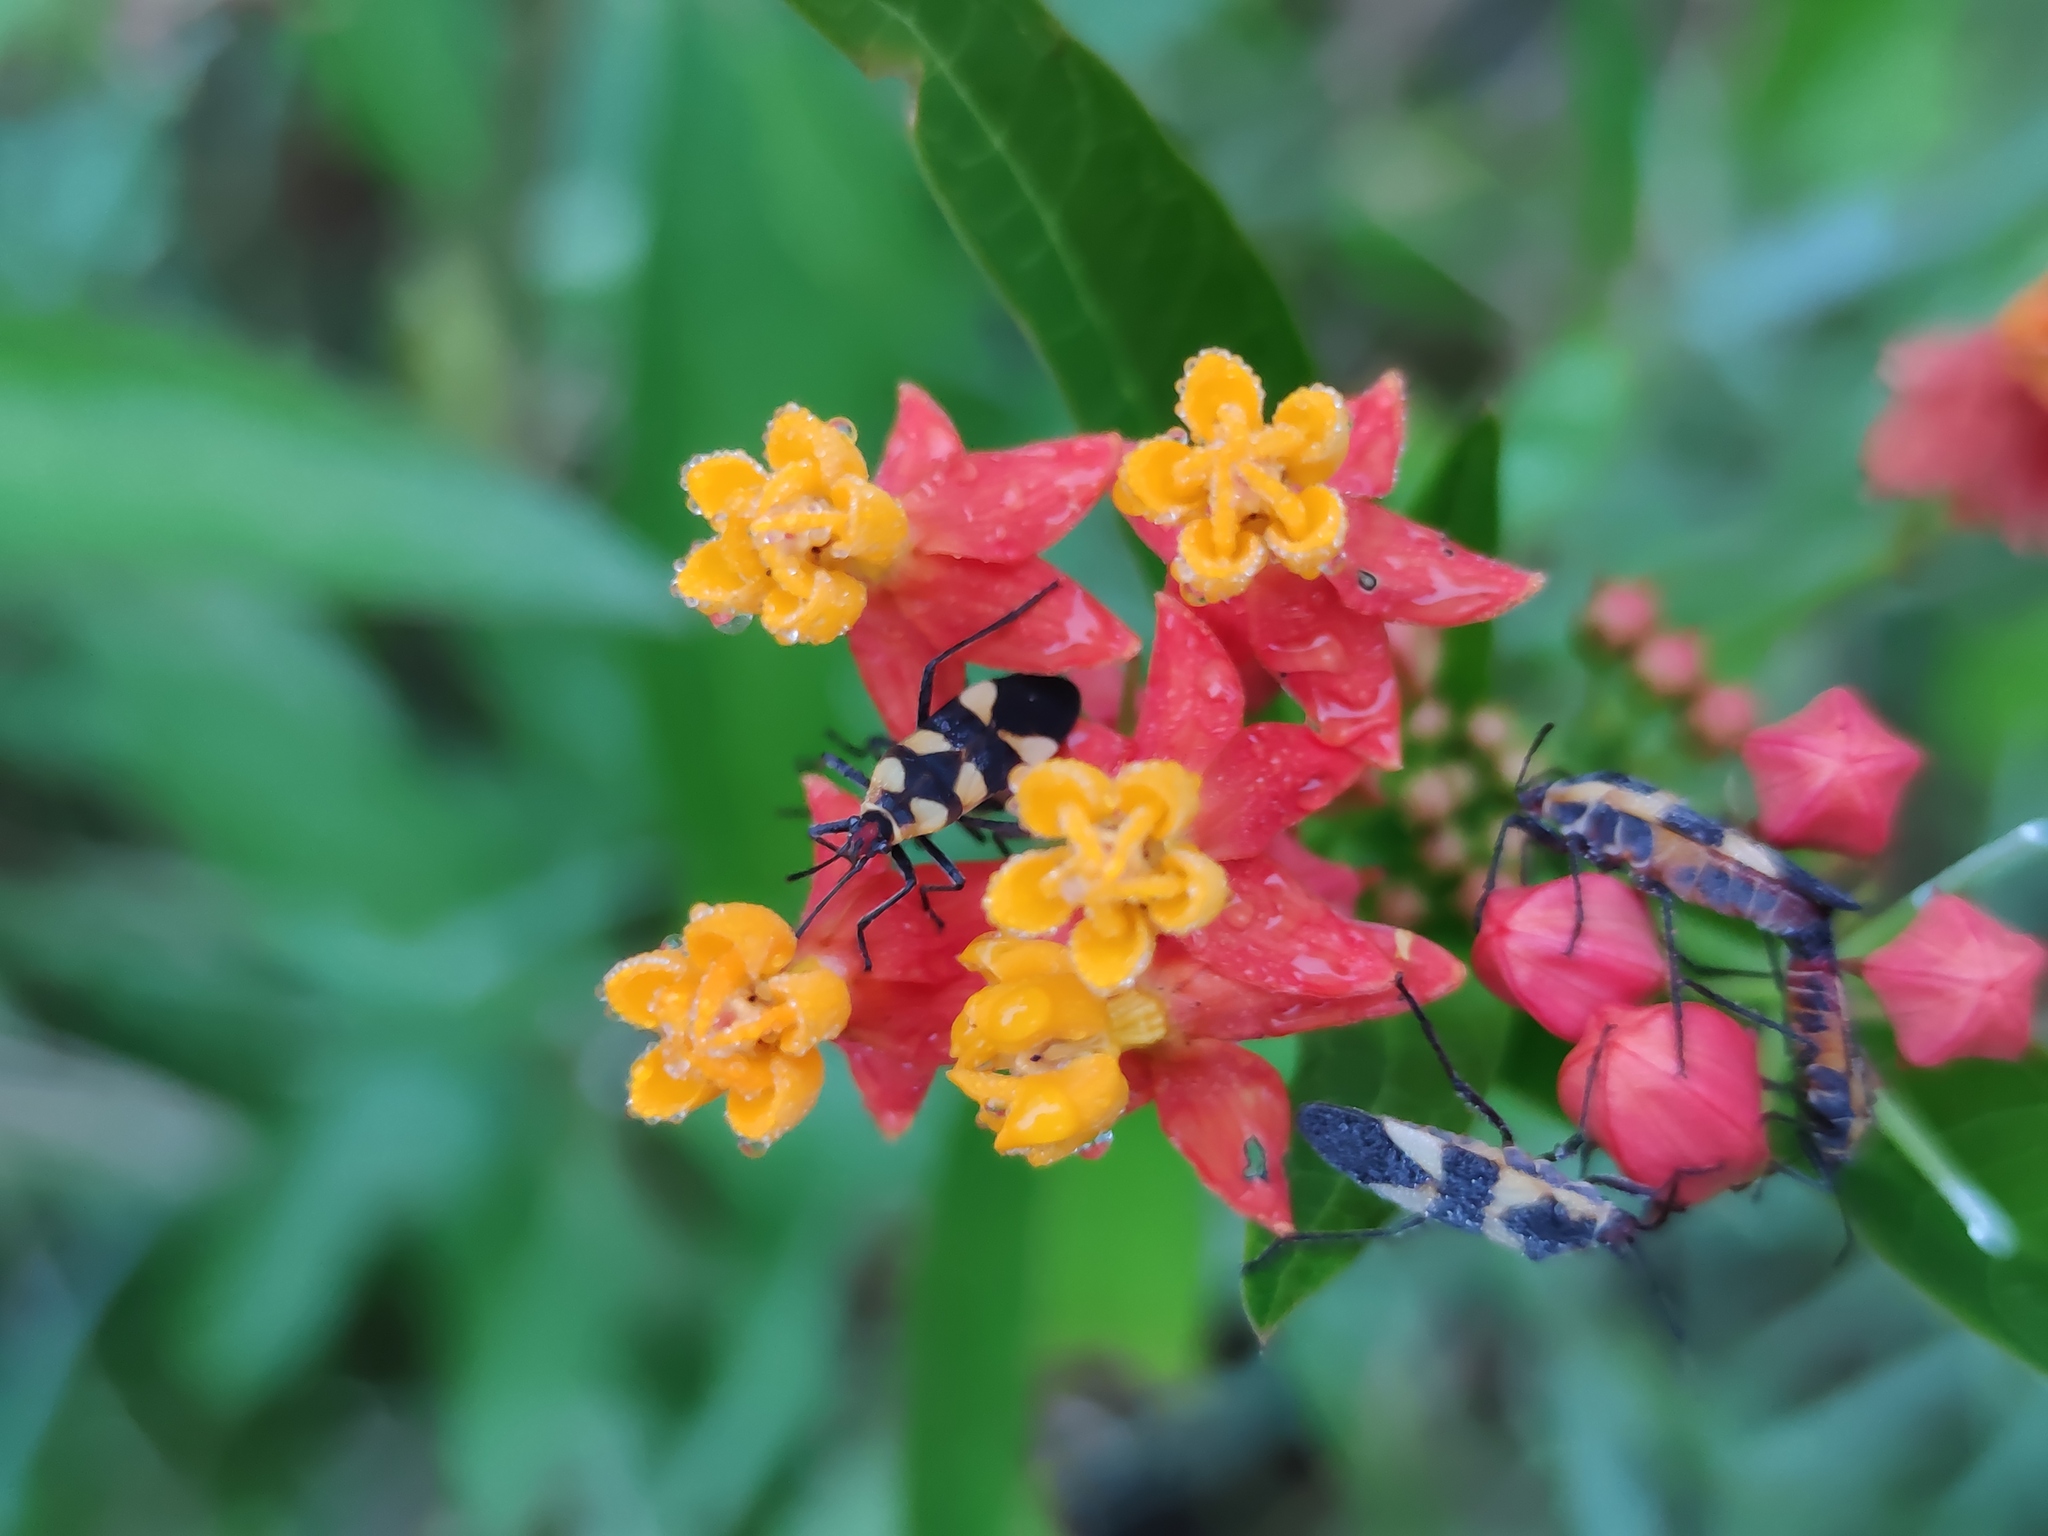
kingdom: Plantae
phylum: Tracheophyta
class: Magnoliopsida
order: Gentianales
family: Apocynaceae
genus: Asclepias
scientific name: Asclepias curassavica
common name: Bloodflower
